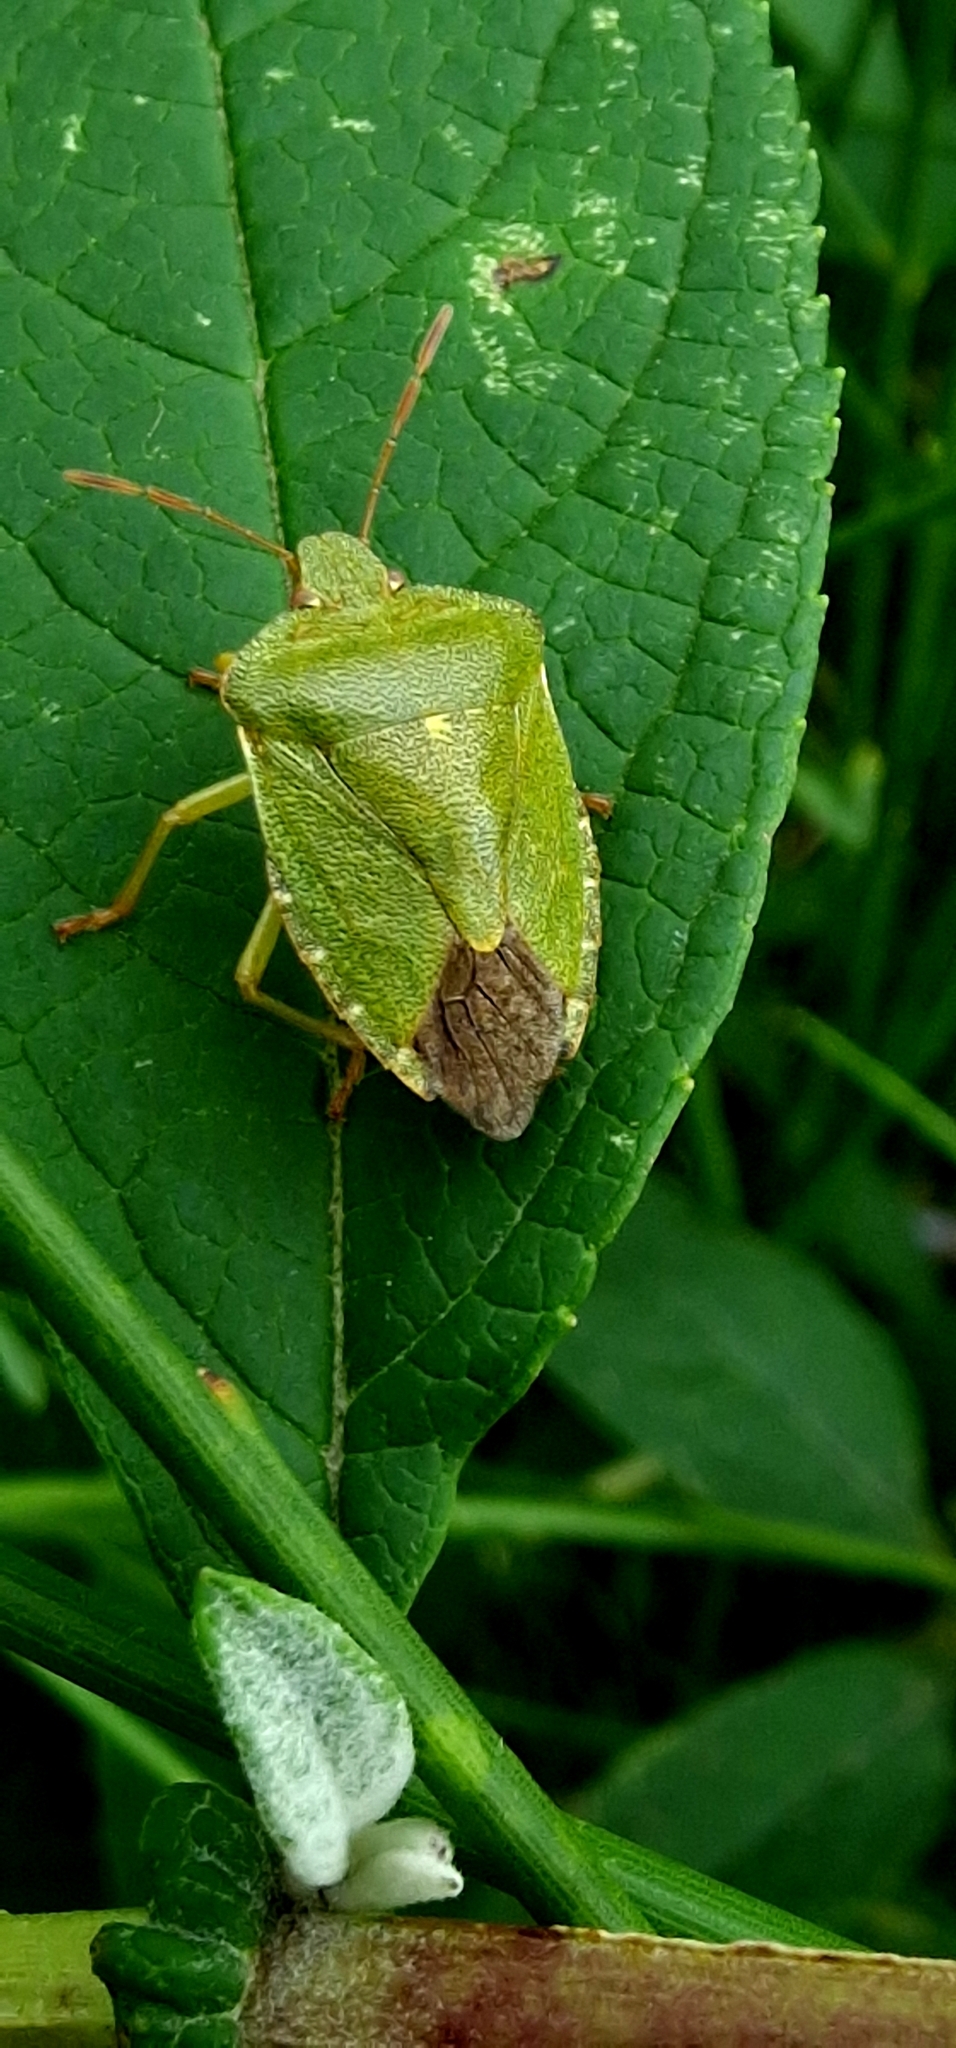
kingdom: Animalia
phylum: Arthropoda
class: Insecta
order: Hemiptera
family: Pentatomidae
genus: Palomena
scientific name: Palomena prasina
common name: Green shieldbug
